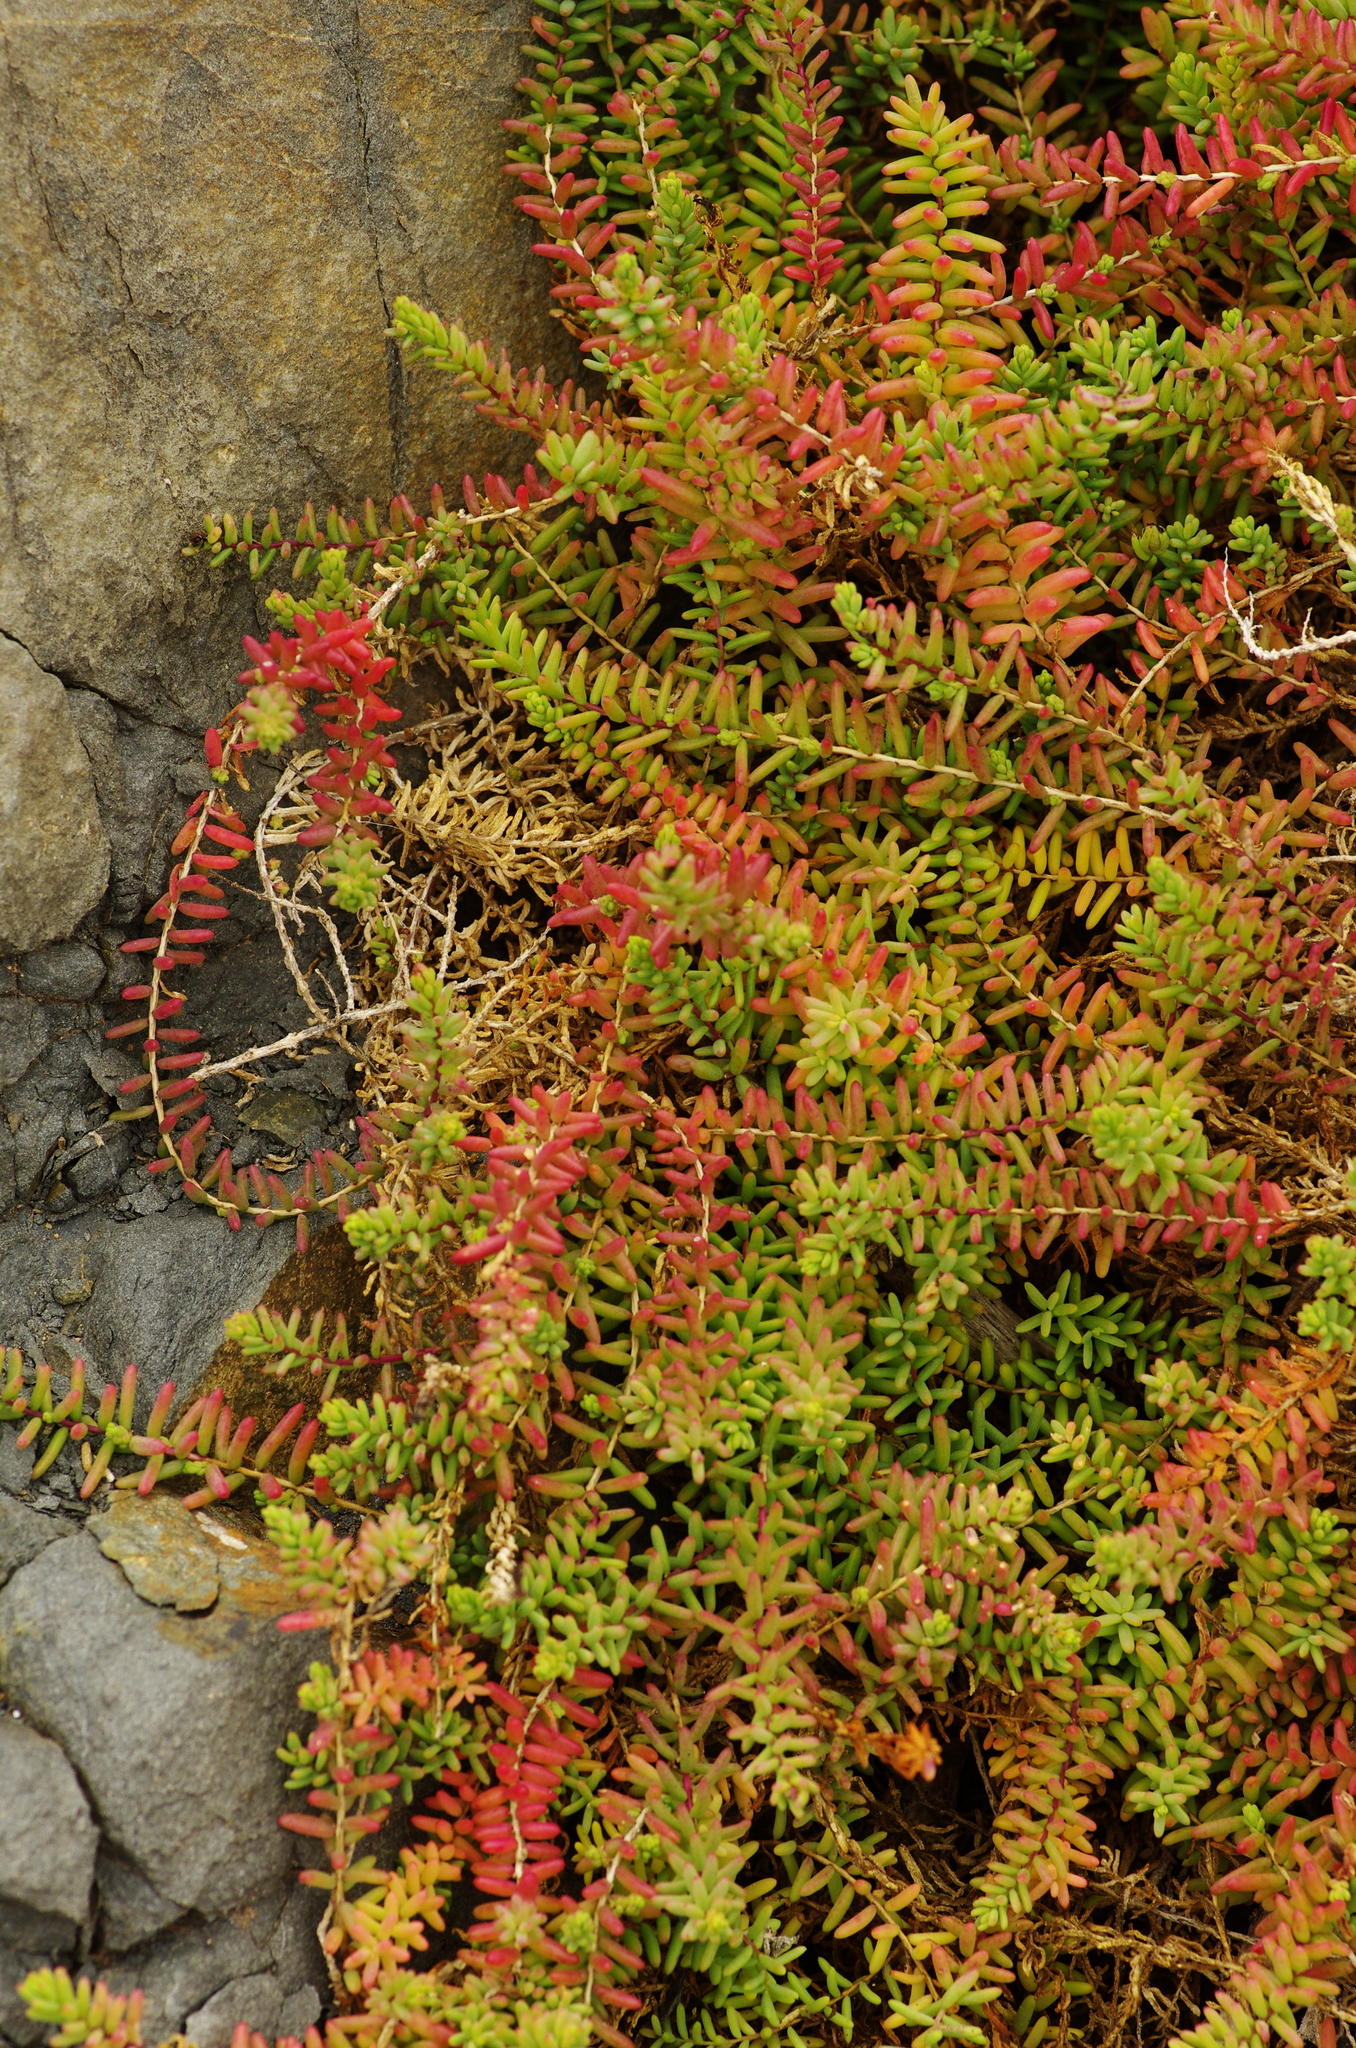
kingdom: Plantae
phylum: Tracheophyta
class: Magnoliopsida
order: Caryophyllales
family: Amaranthaceae
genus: Suaeda
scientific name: Suaeda vera
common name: Shrubby sea-blite
